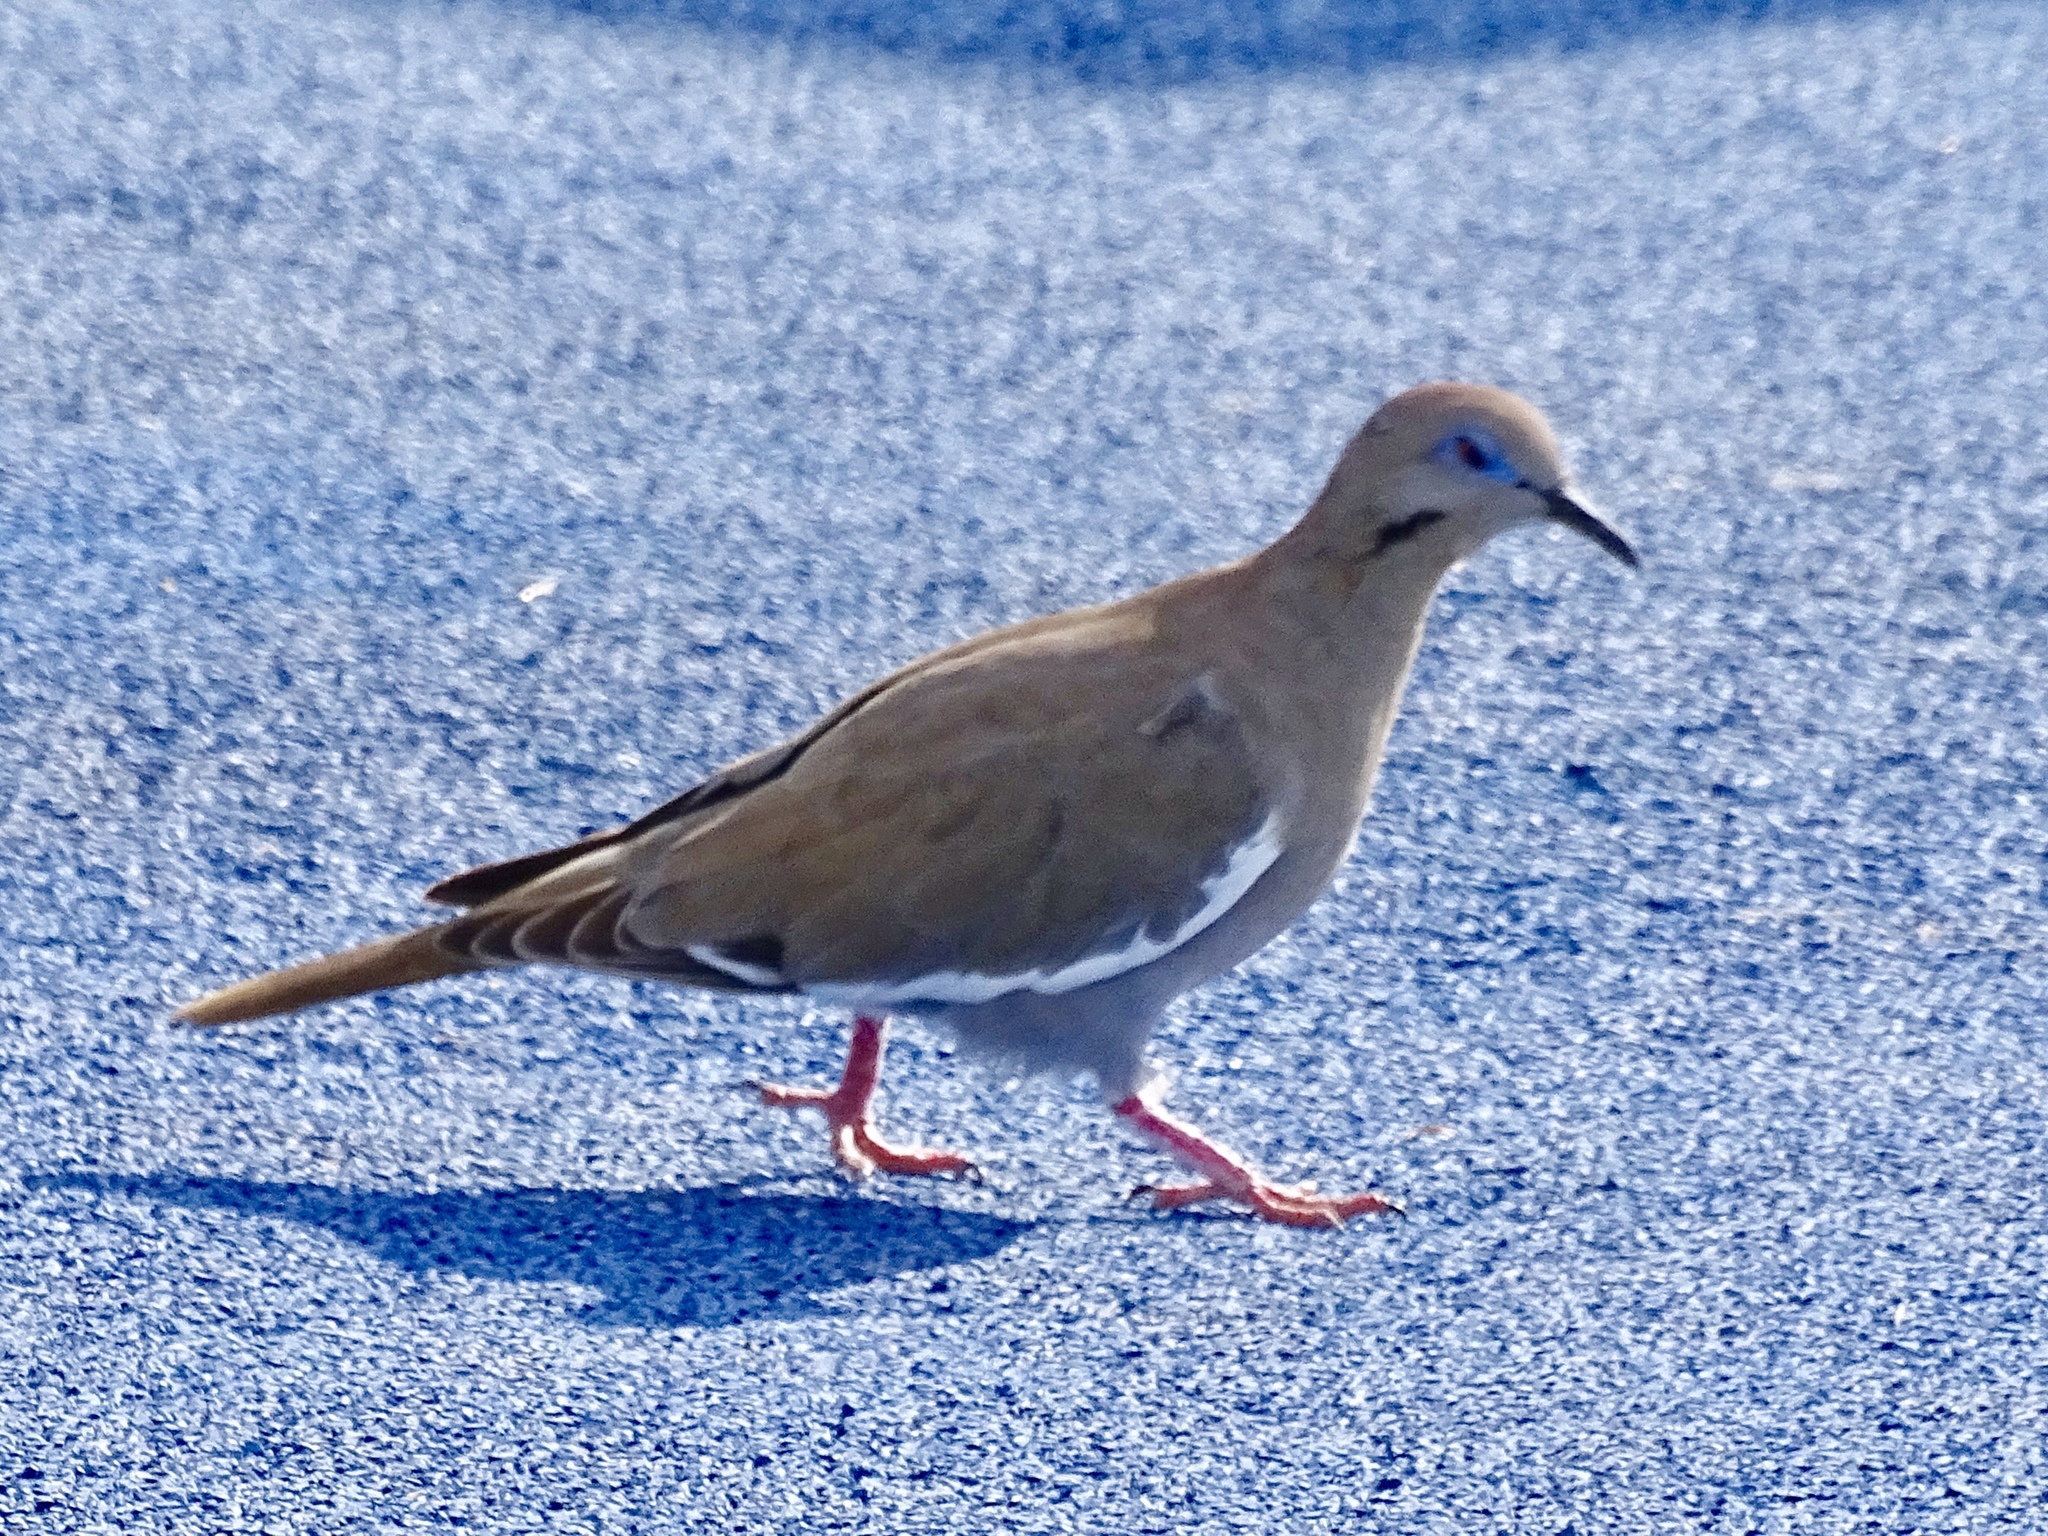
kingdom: Animalia
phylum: Chordata
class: Aves
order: Columbiformes
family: Columbidae
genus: Zenaida
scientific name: Zenaida asiatica
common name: White-winged dove
